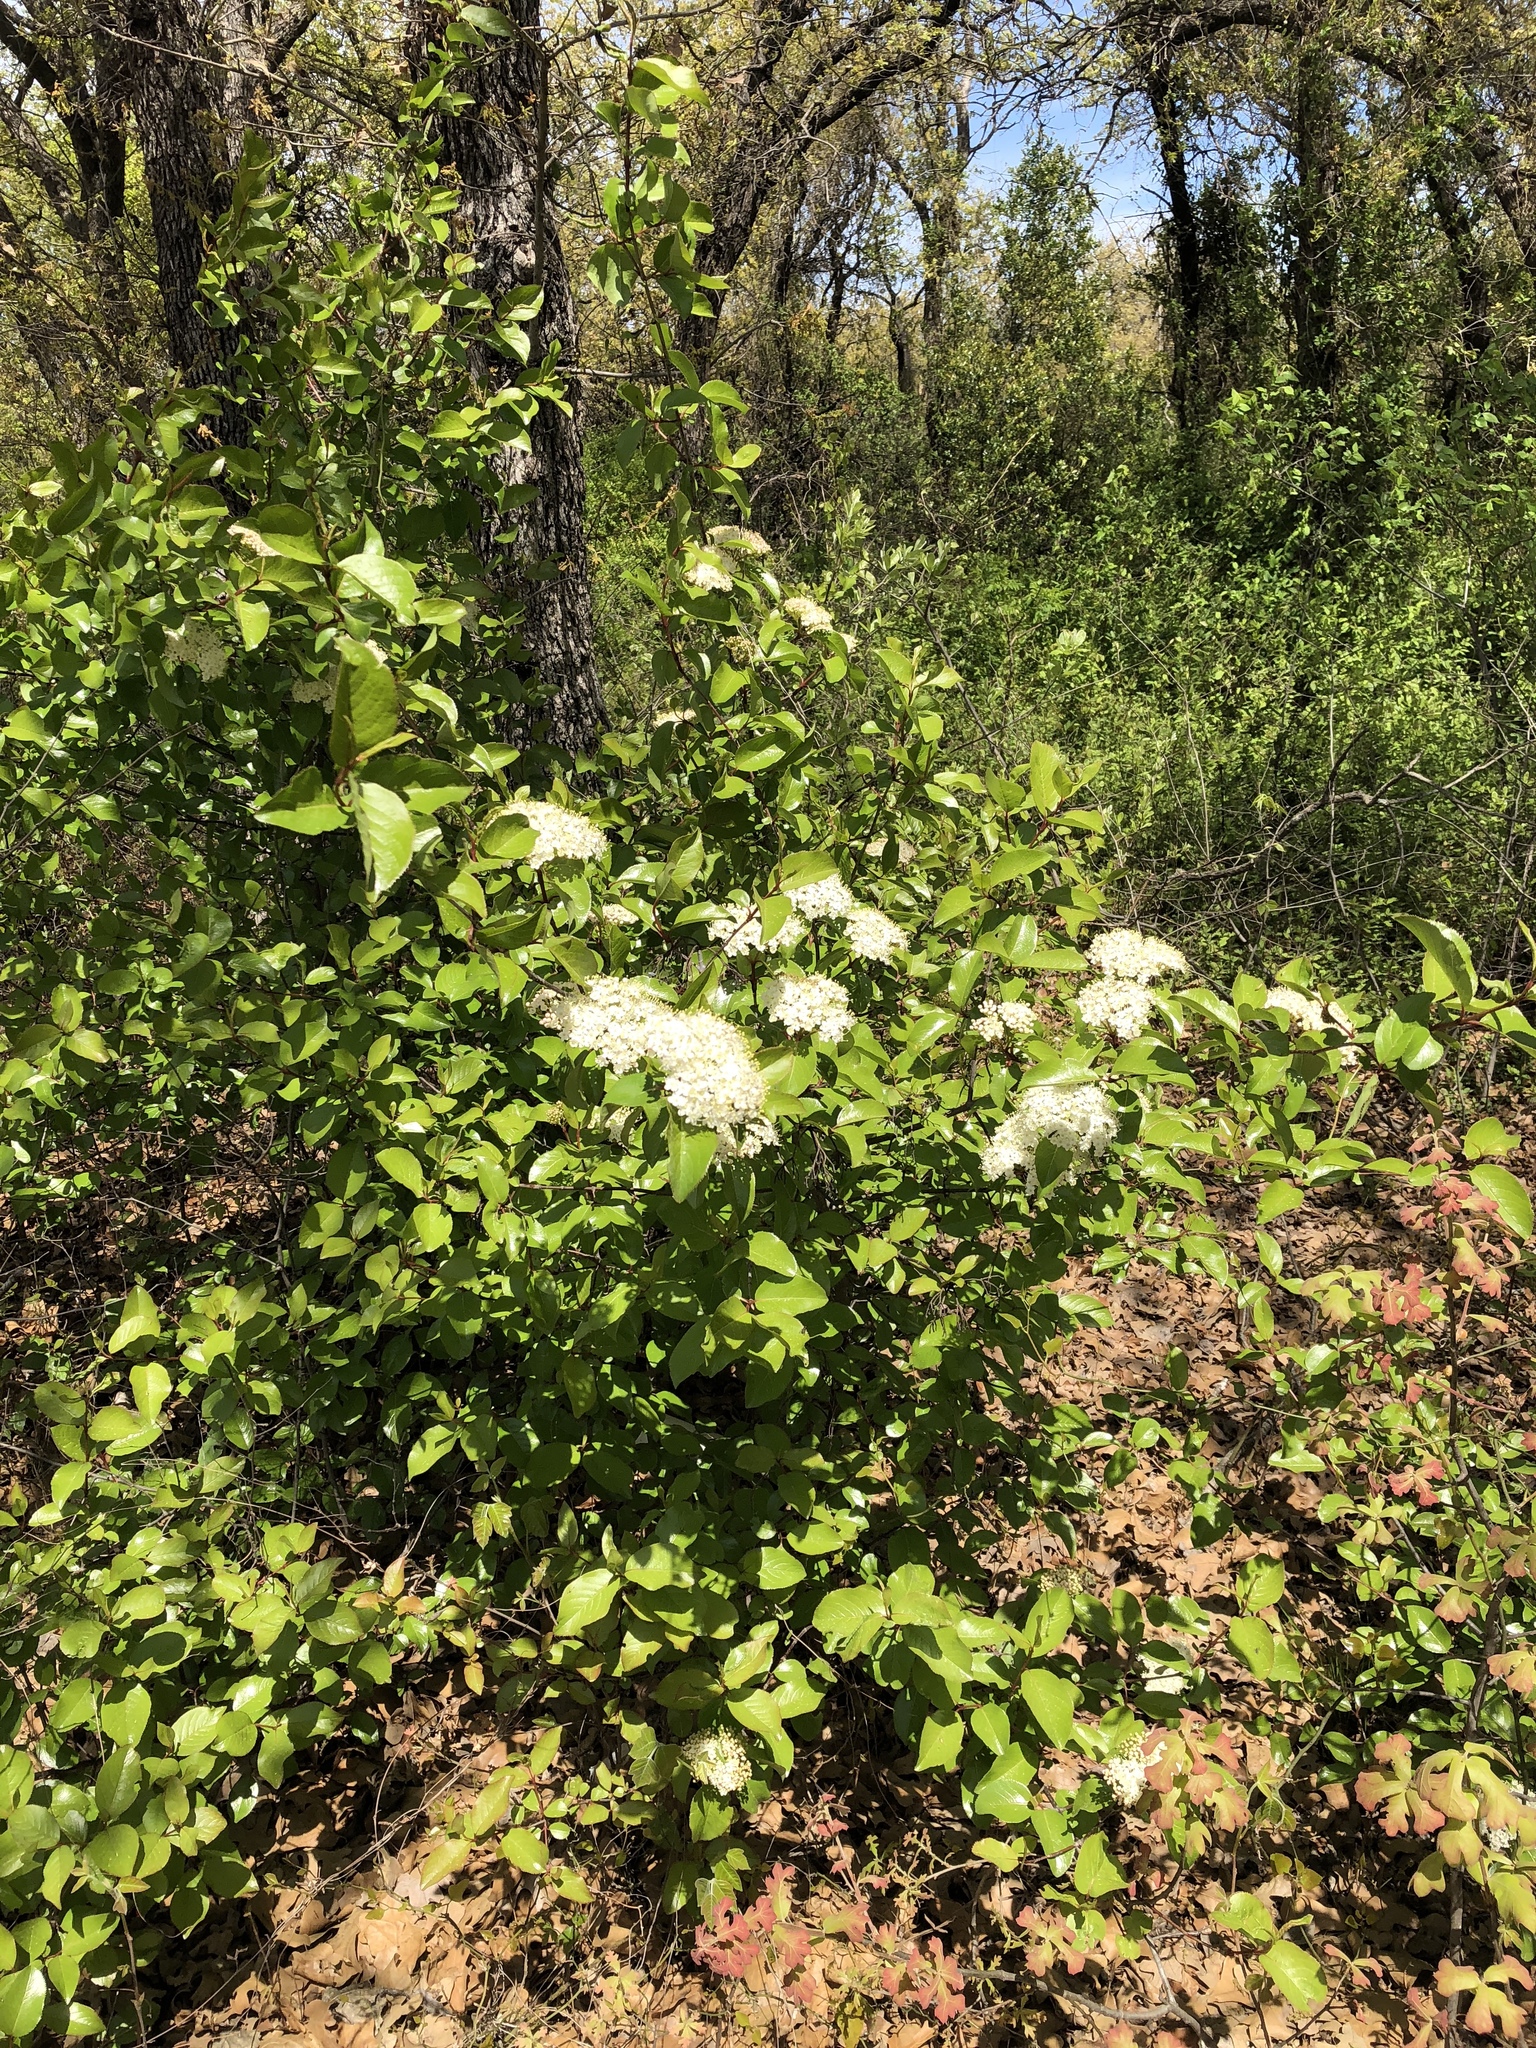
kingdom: Plantae
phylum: Tracheophyta
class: Magnoliopsida
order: Dipsacales
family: Viburnaceae
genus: Viburnum
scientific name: Viburnum rufidulum
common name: Blue haw
